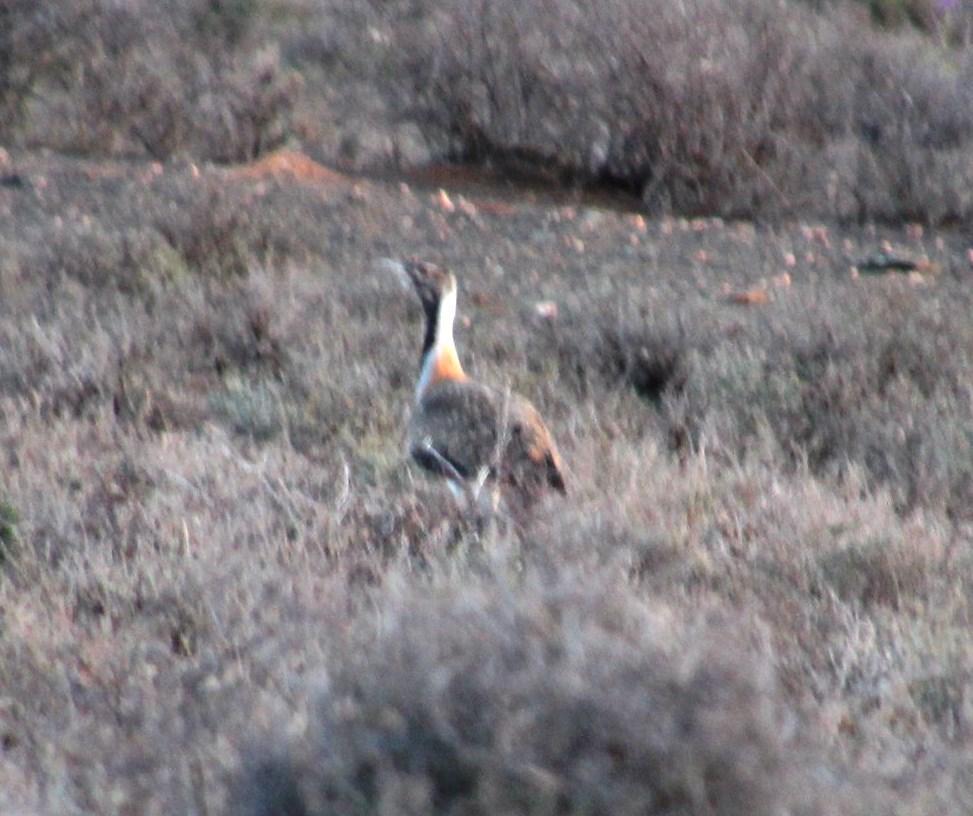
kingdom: Animalia
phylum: Chordata
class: Aves
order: Otidiformes
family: Otididae
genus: Neotis
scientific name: Neotis ludwigii
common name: Ludwig's bustard
